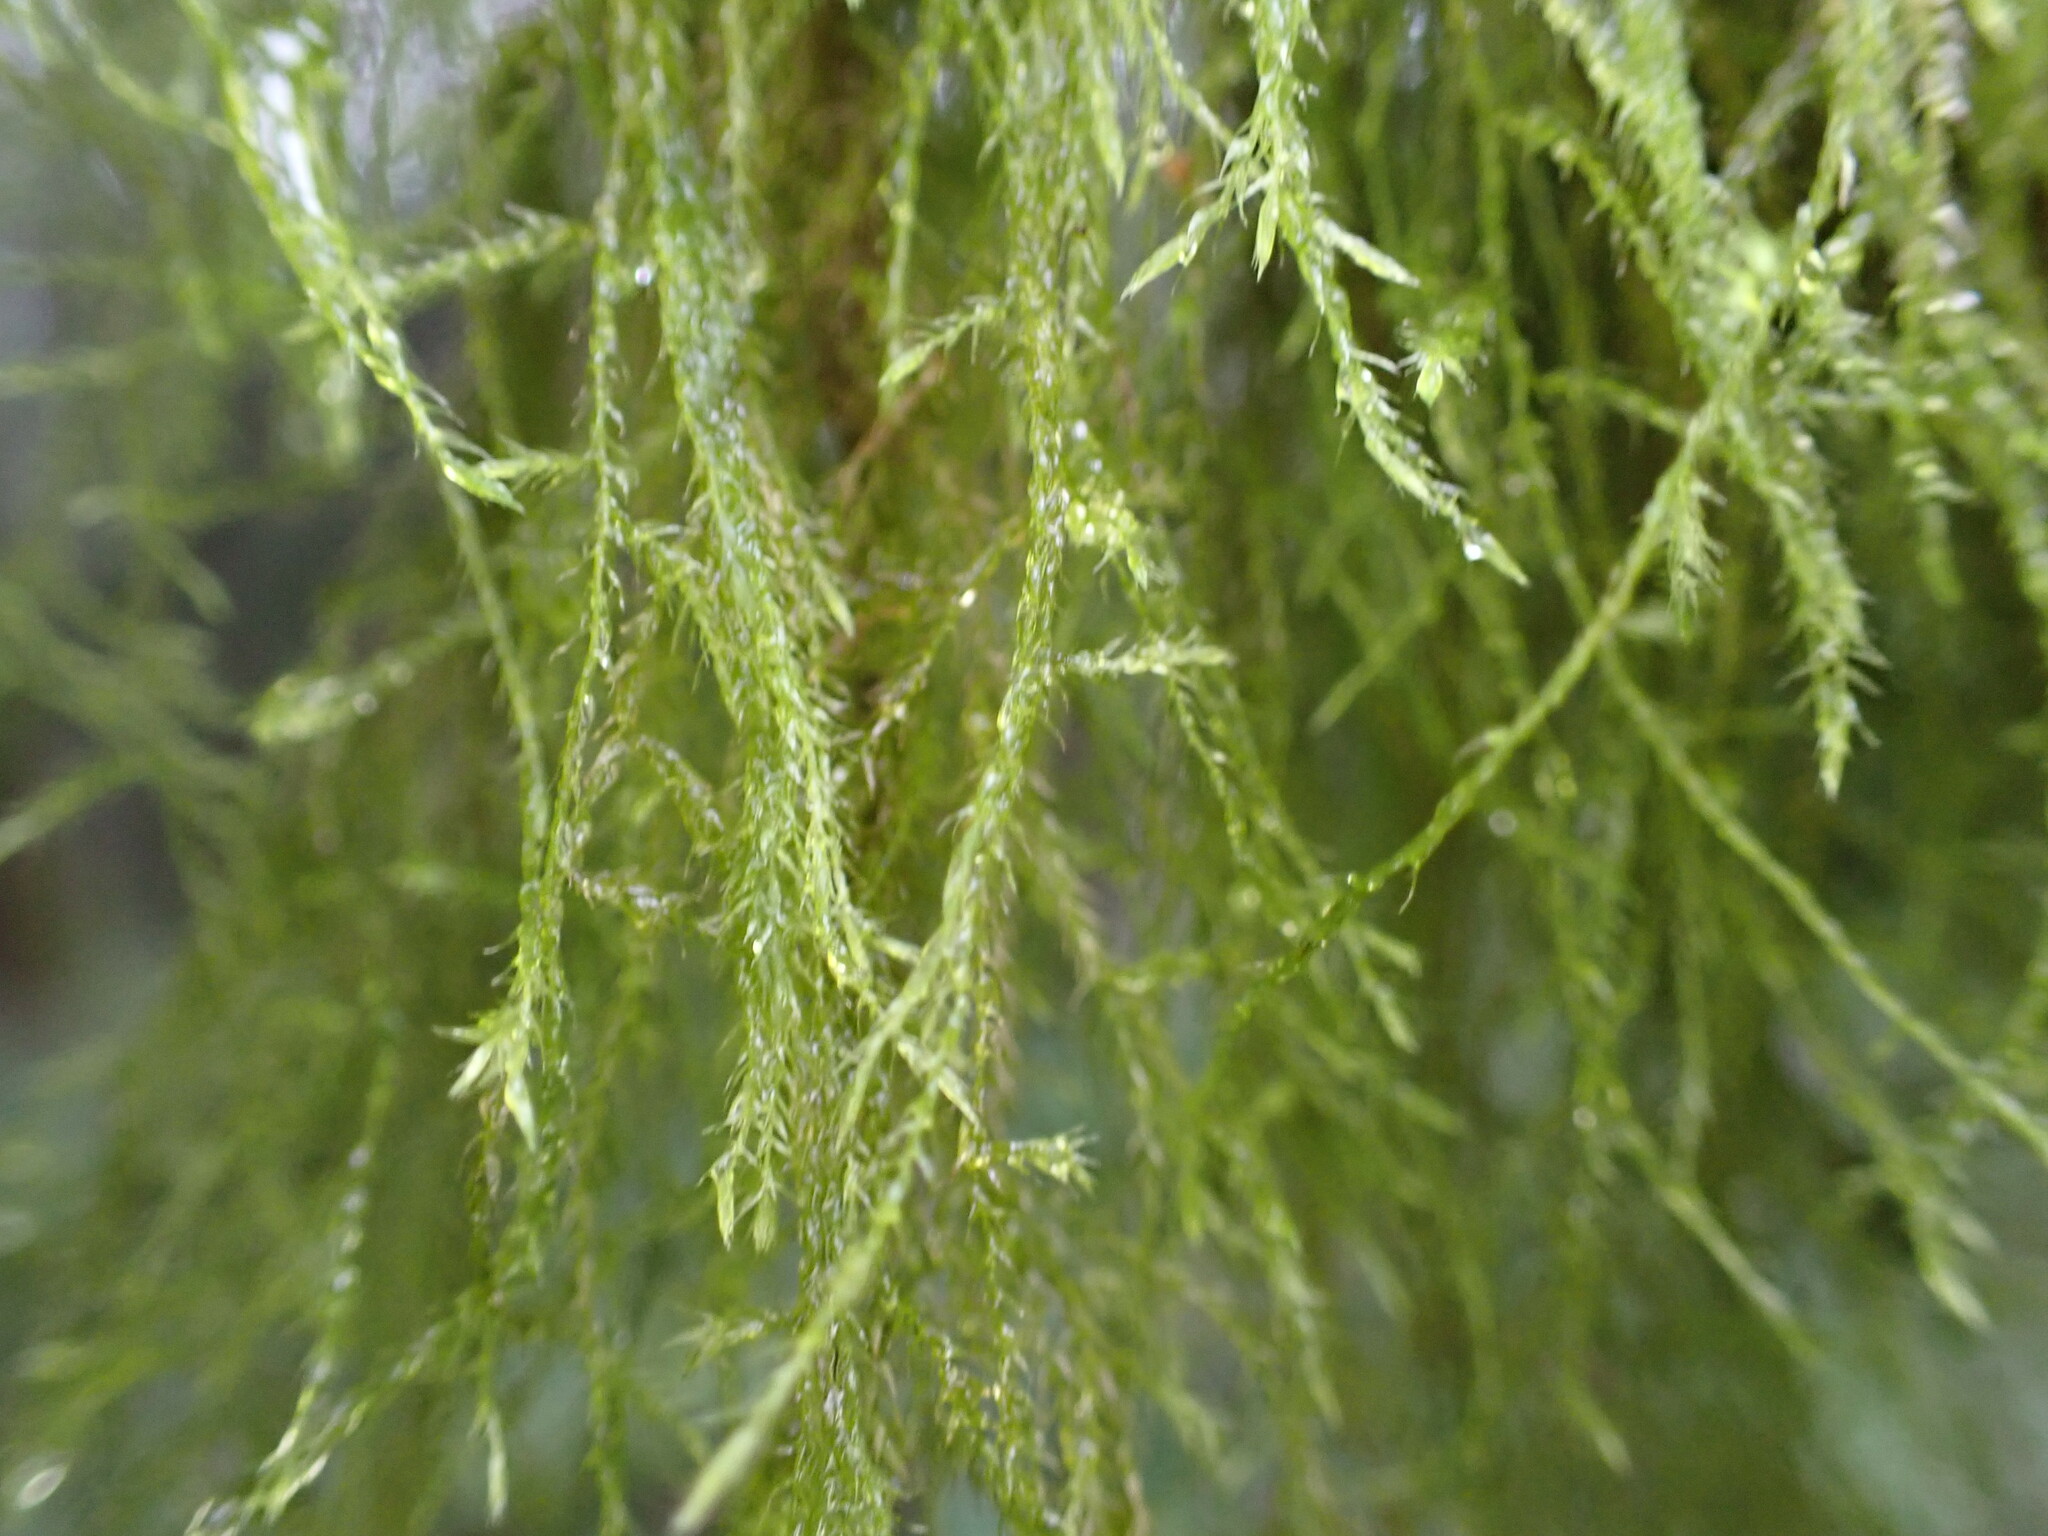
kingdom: Plantae
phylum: Bryophyta
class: Bryopsida
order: Hypnales
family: Lembophyllaceae
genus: Pseudisothecium
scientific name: Pseudisothecium stoloniferum
